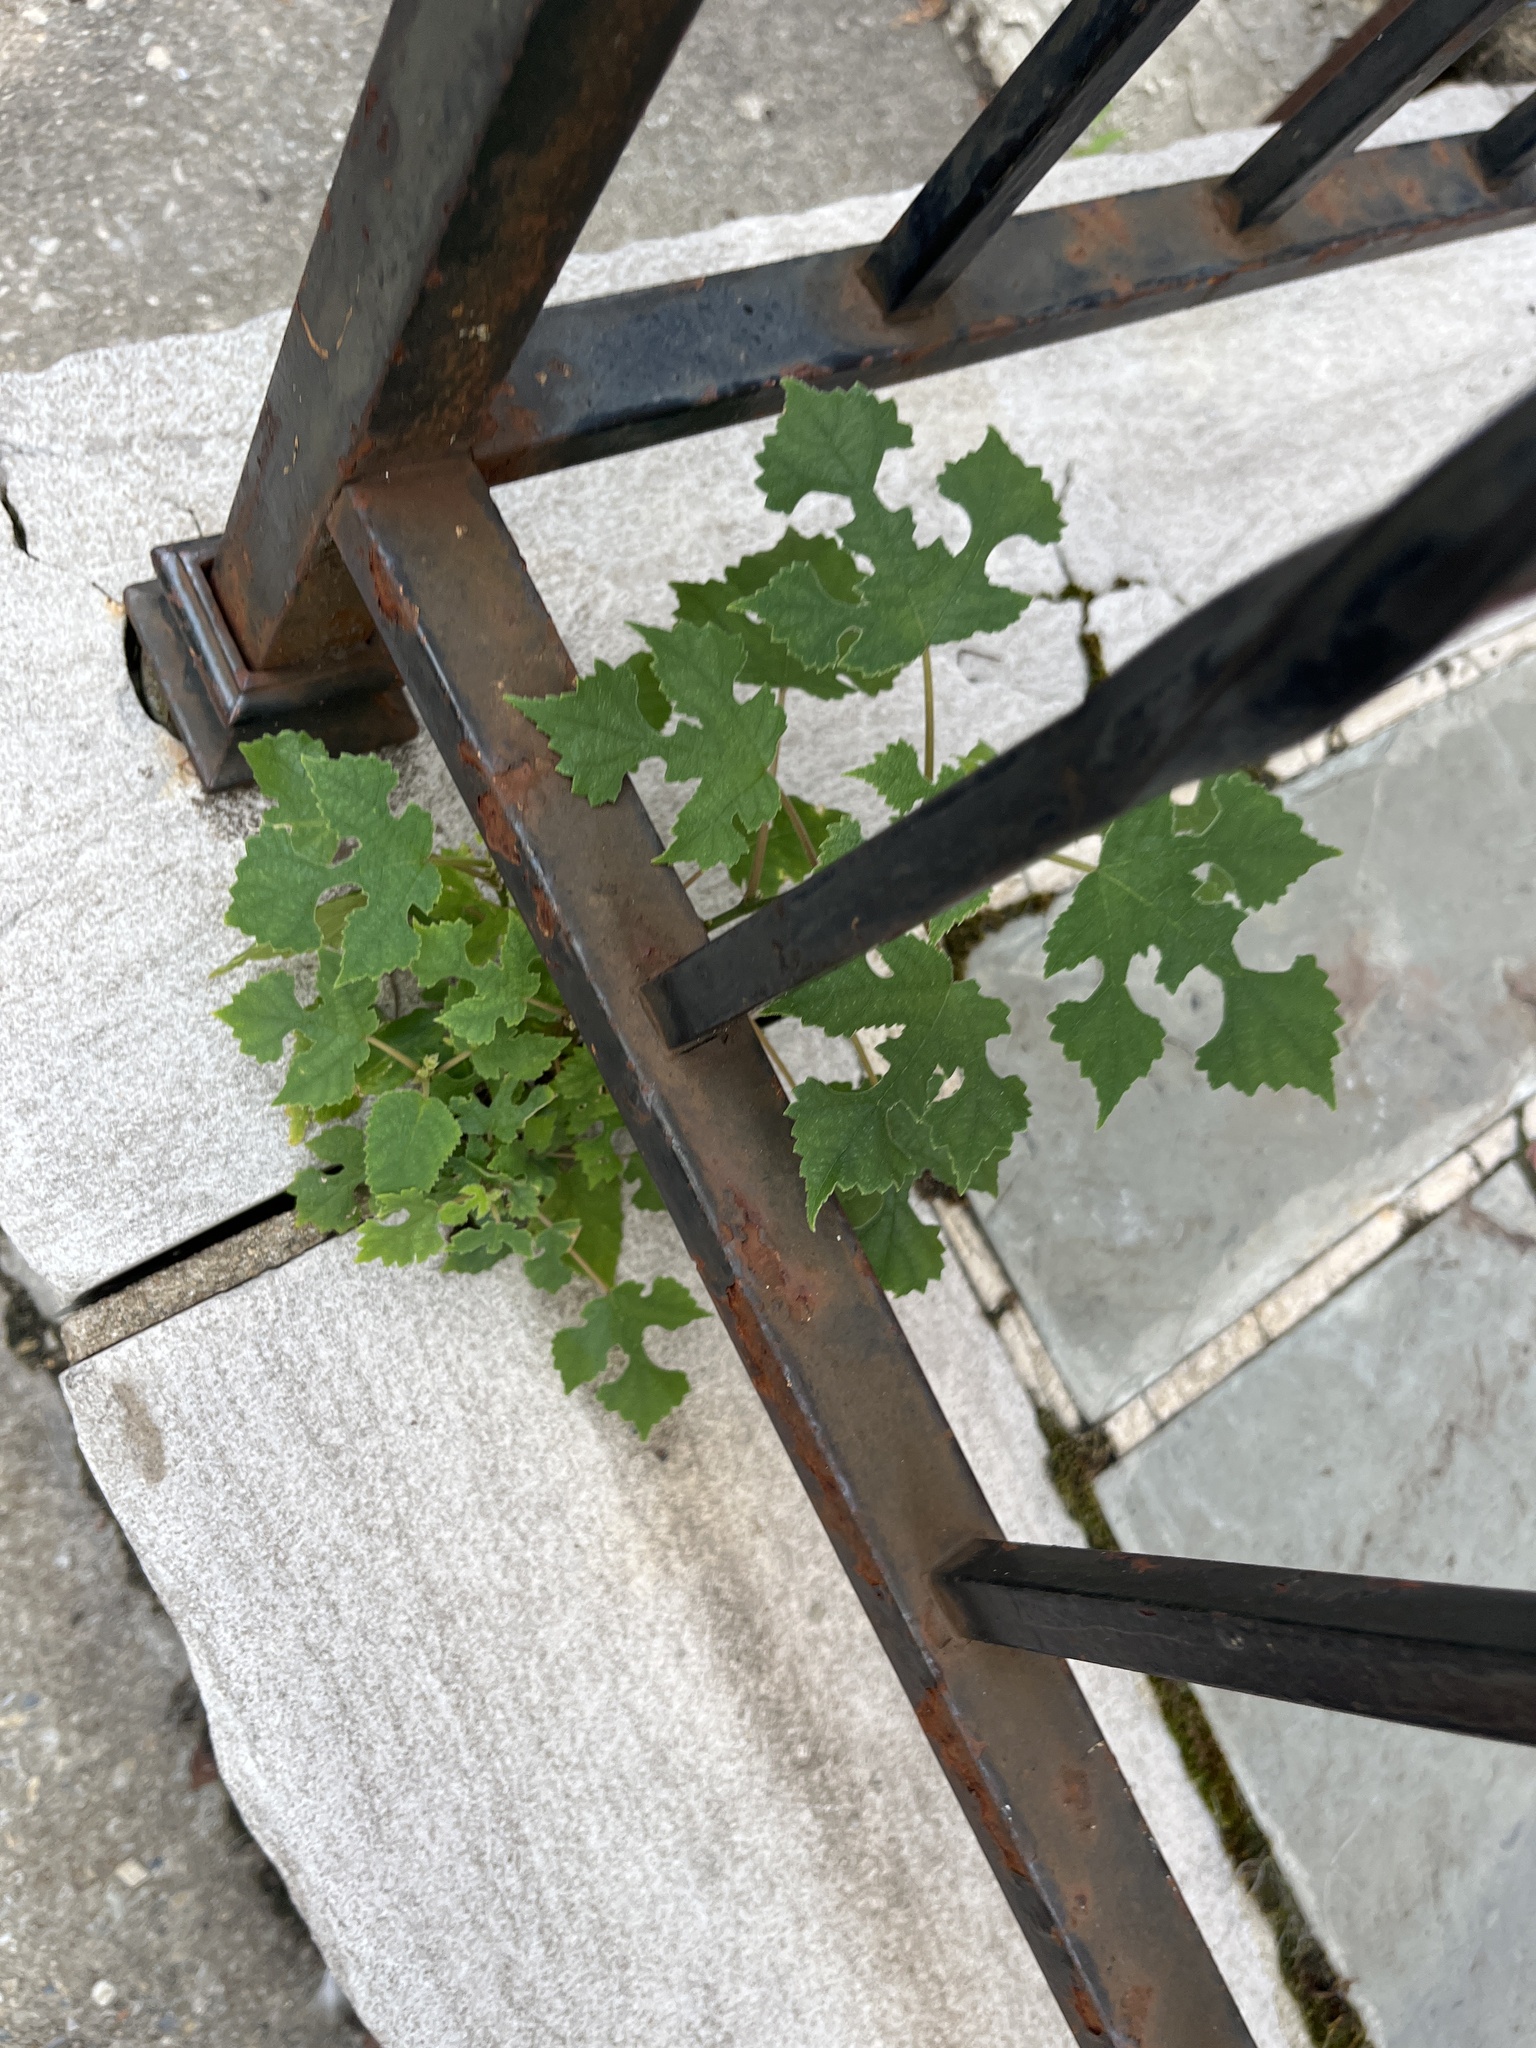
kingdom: Plantae
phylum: Tracheophyta
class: Magnoliopsida
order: Rosales
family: Moraceae
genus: Broussonetia
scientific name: Broussonetia papyrifera
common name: Paper mulberry
